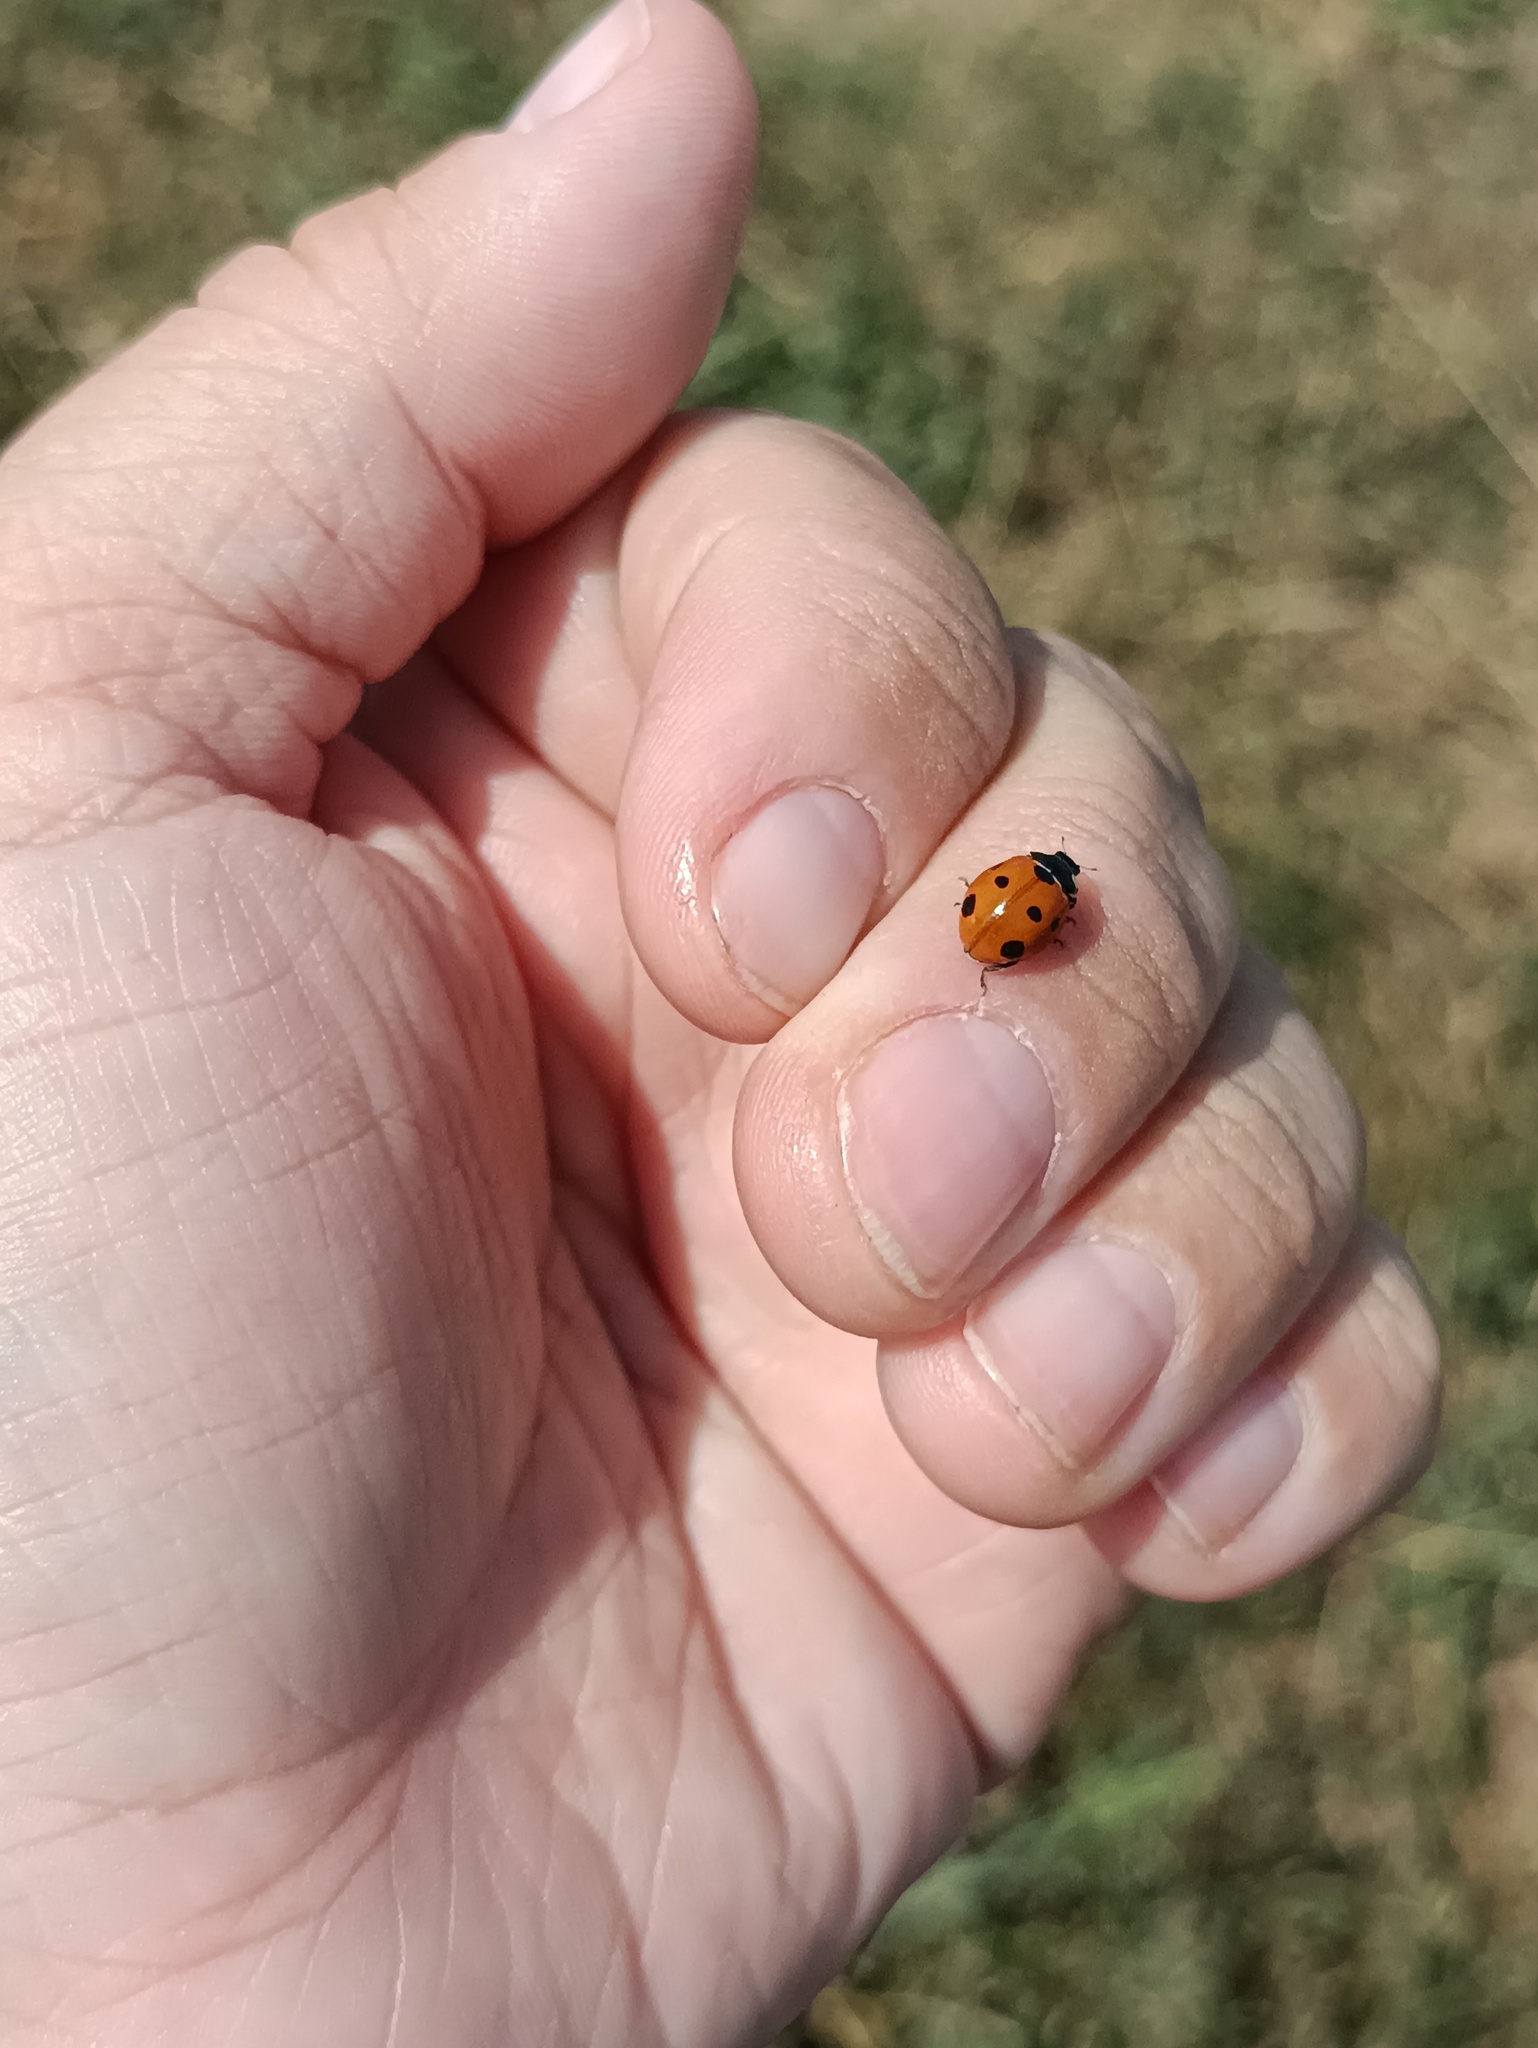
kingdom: Animalia
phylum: Arthropoda
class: Insecta
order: Coleoptera
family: Coccinellidae
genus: Coccinella
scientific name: Coccinella septempunctata
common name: Sevenspotted lady beetle
